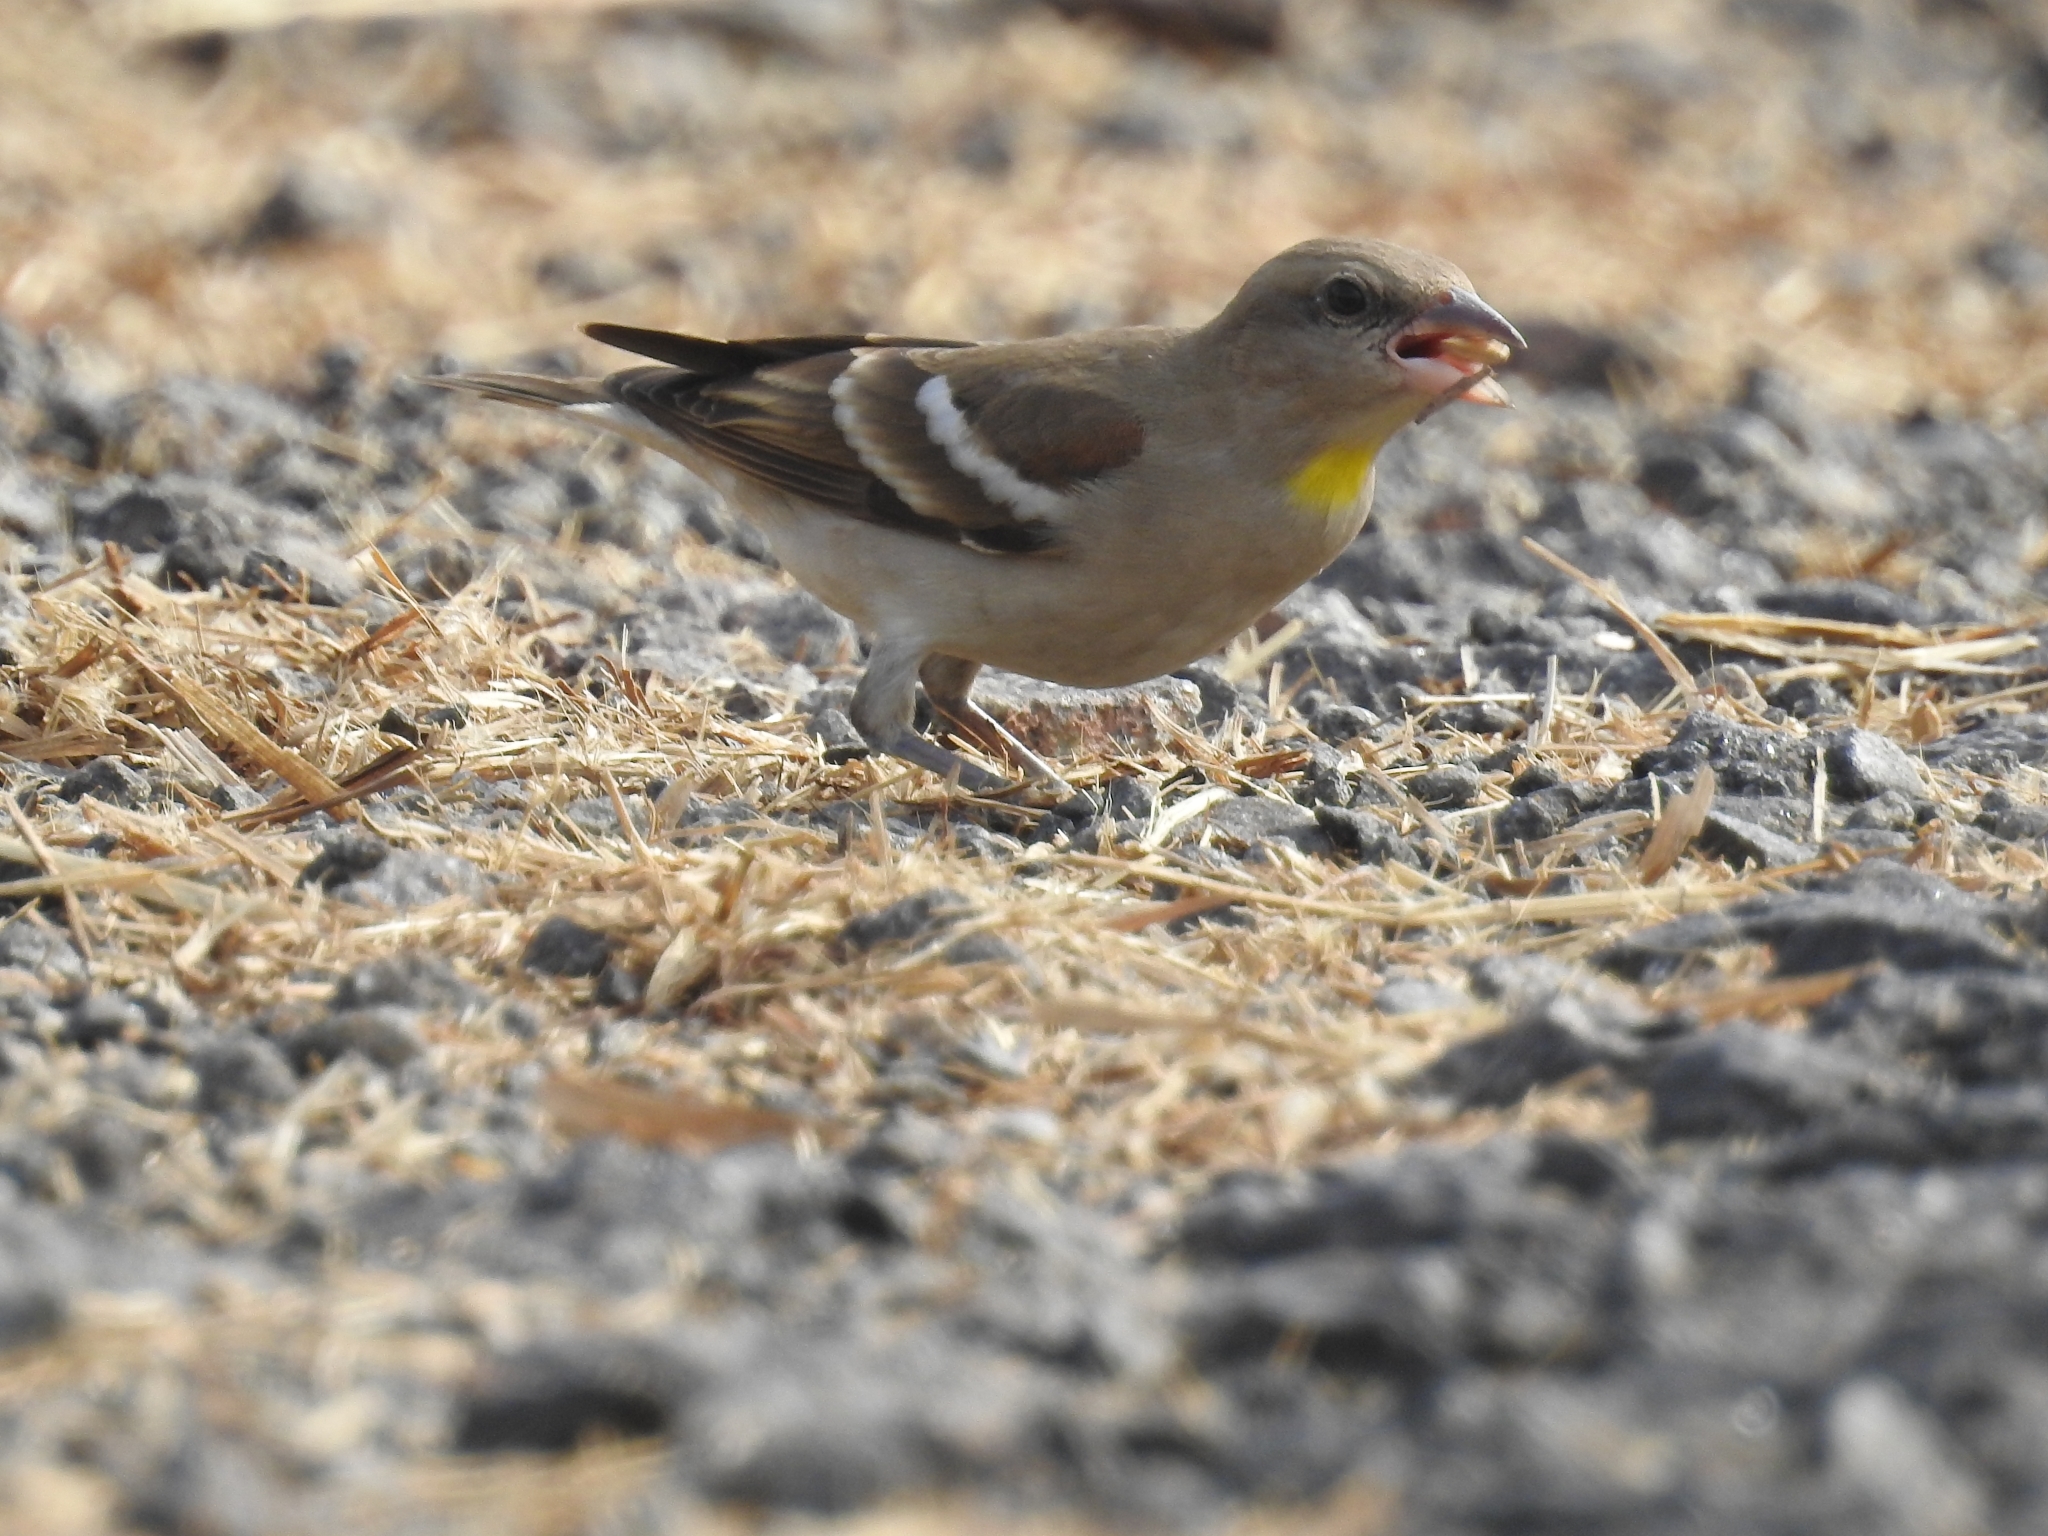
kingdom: Animalia
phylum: Chordata
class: Aves
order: Passeriformes
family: Passeridae
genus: Gymnoris
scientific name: Gymnoris xanthocollis
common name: Yellow-throated sparrow
